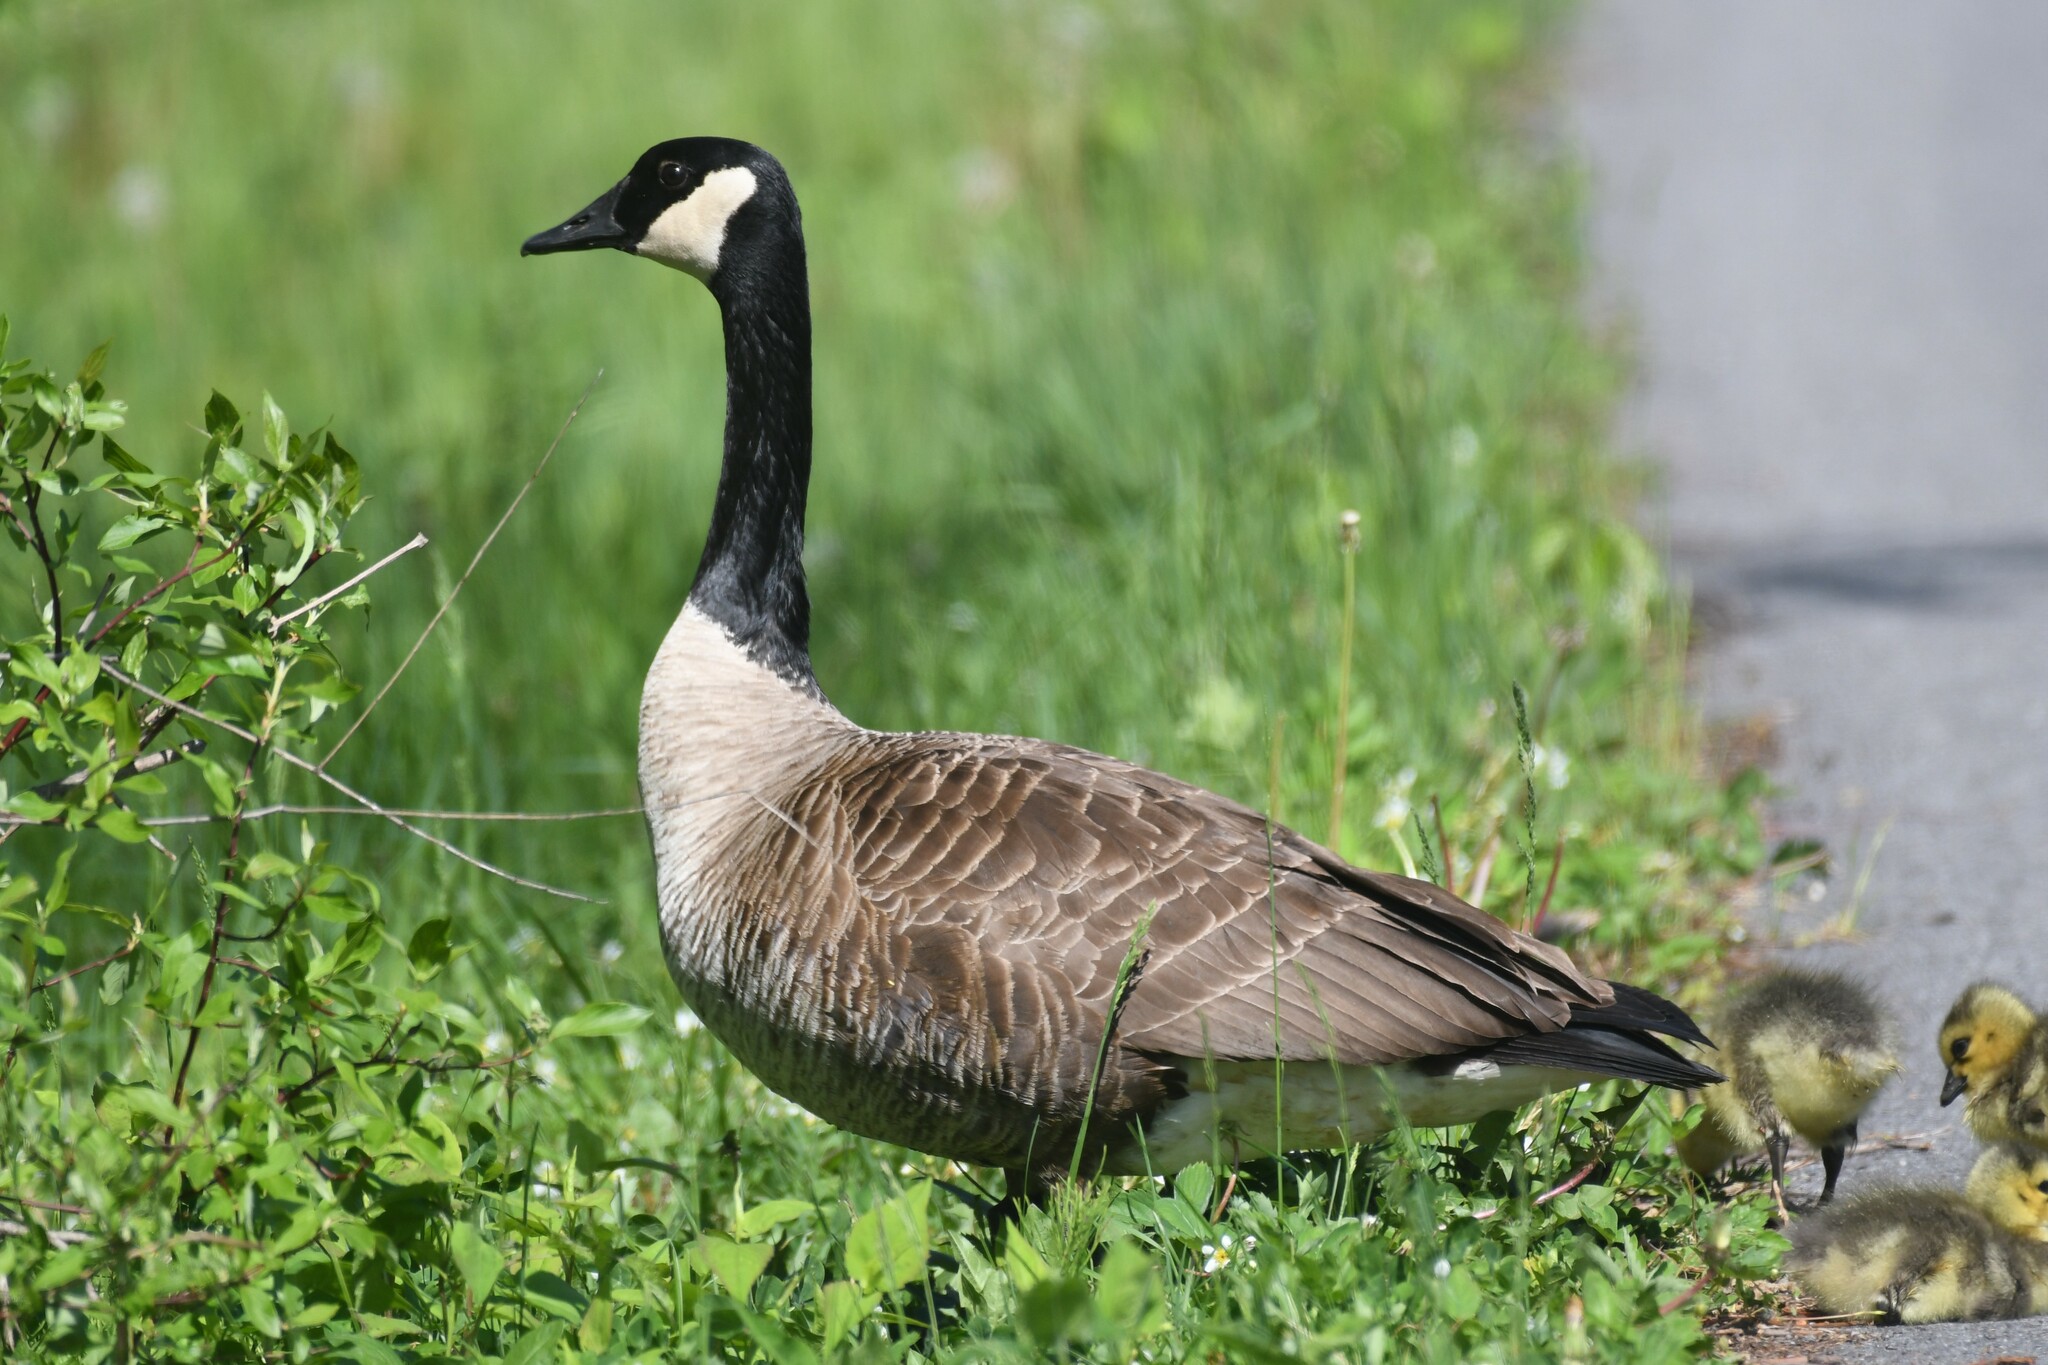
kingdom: Animalia
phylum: Chordata
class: Aves
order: Anseriformes
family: Anatidae
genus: Branta
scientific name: Branta canadensis
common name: Canada goose
